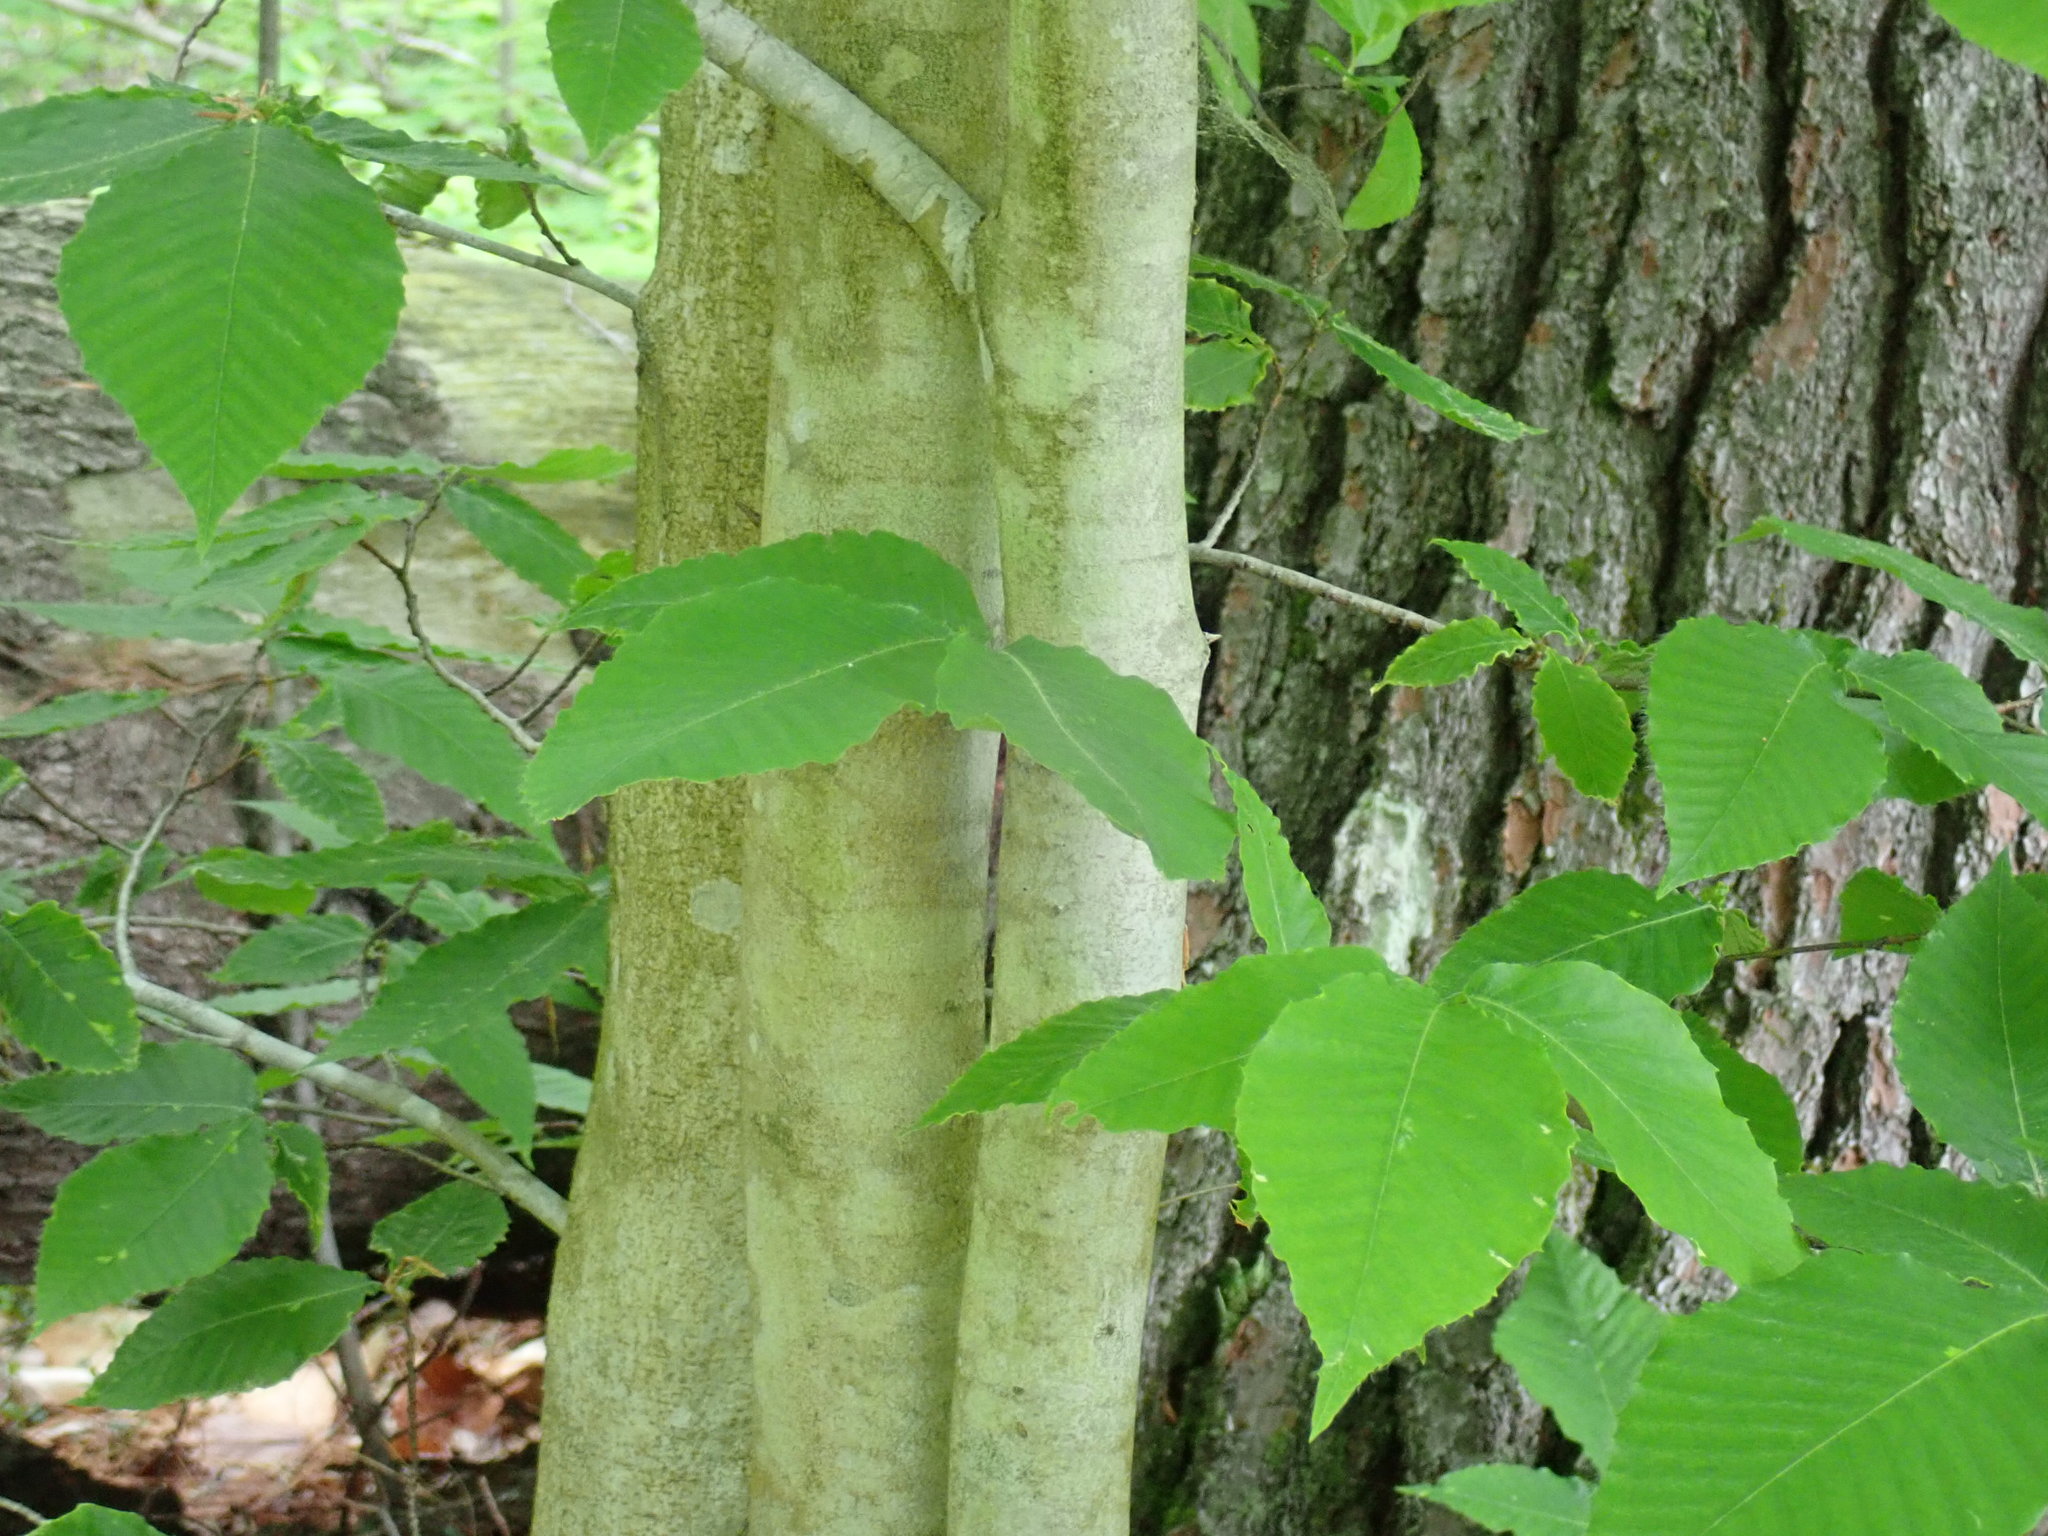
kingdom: Plantae
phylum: Tracheophyta
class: Magnoliopsida
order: Fagales
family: Fagaceae
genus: Fagus
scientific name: Fagus grandifolia
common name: American beech
